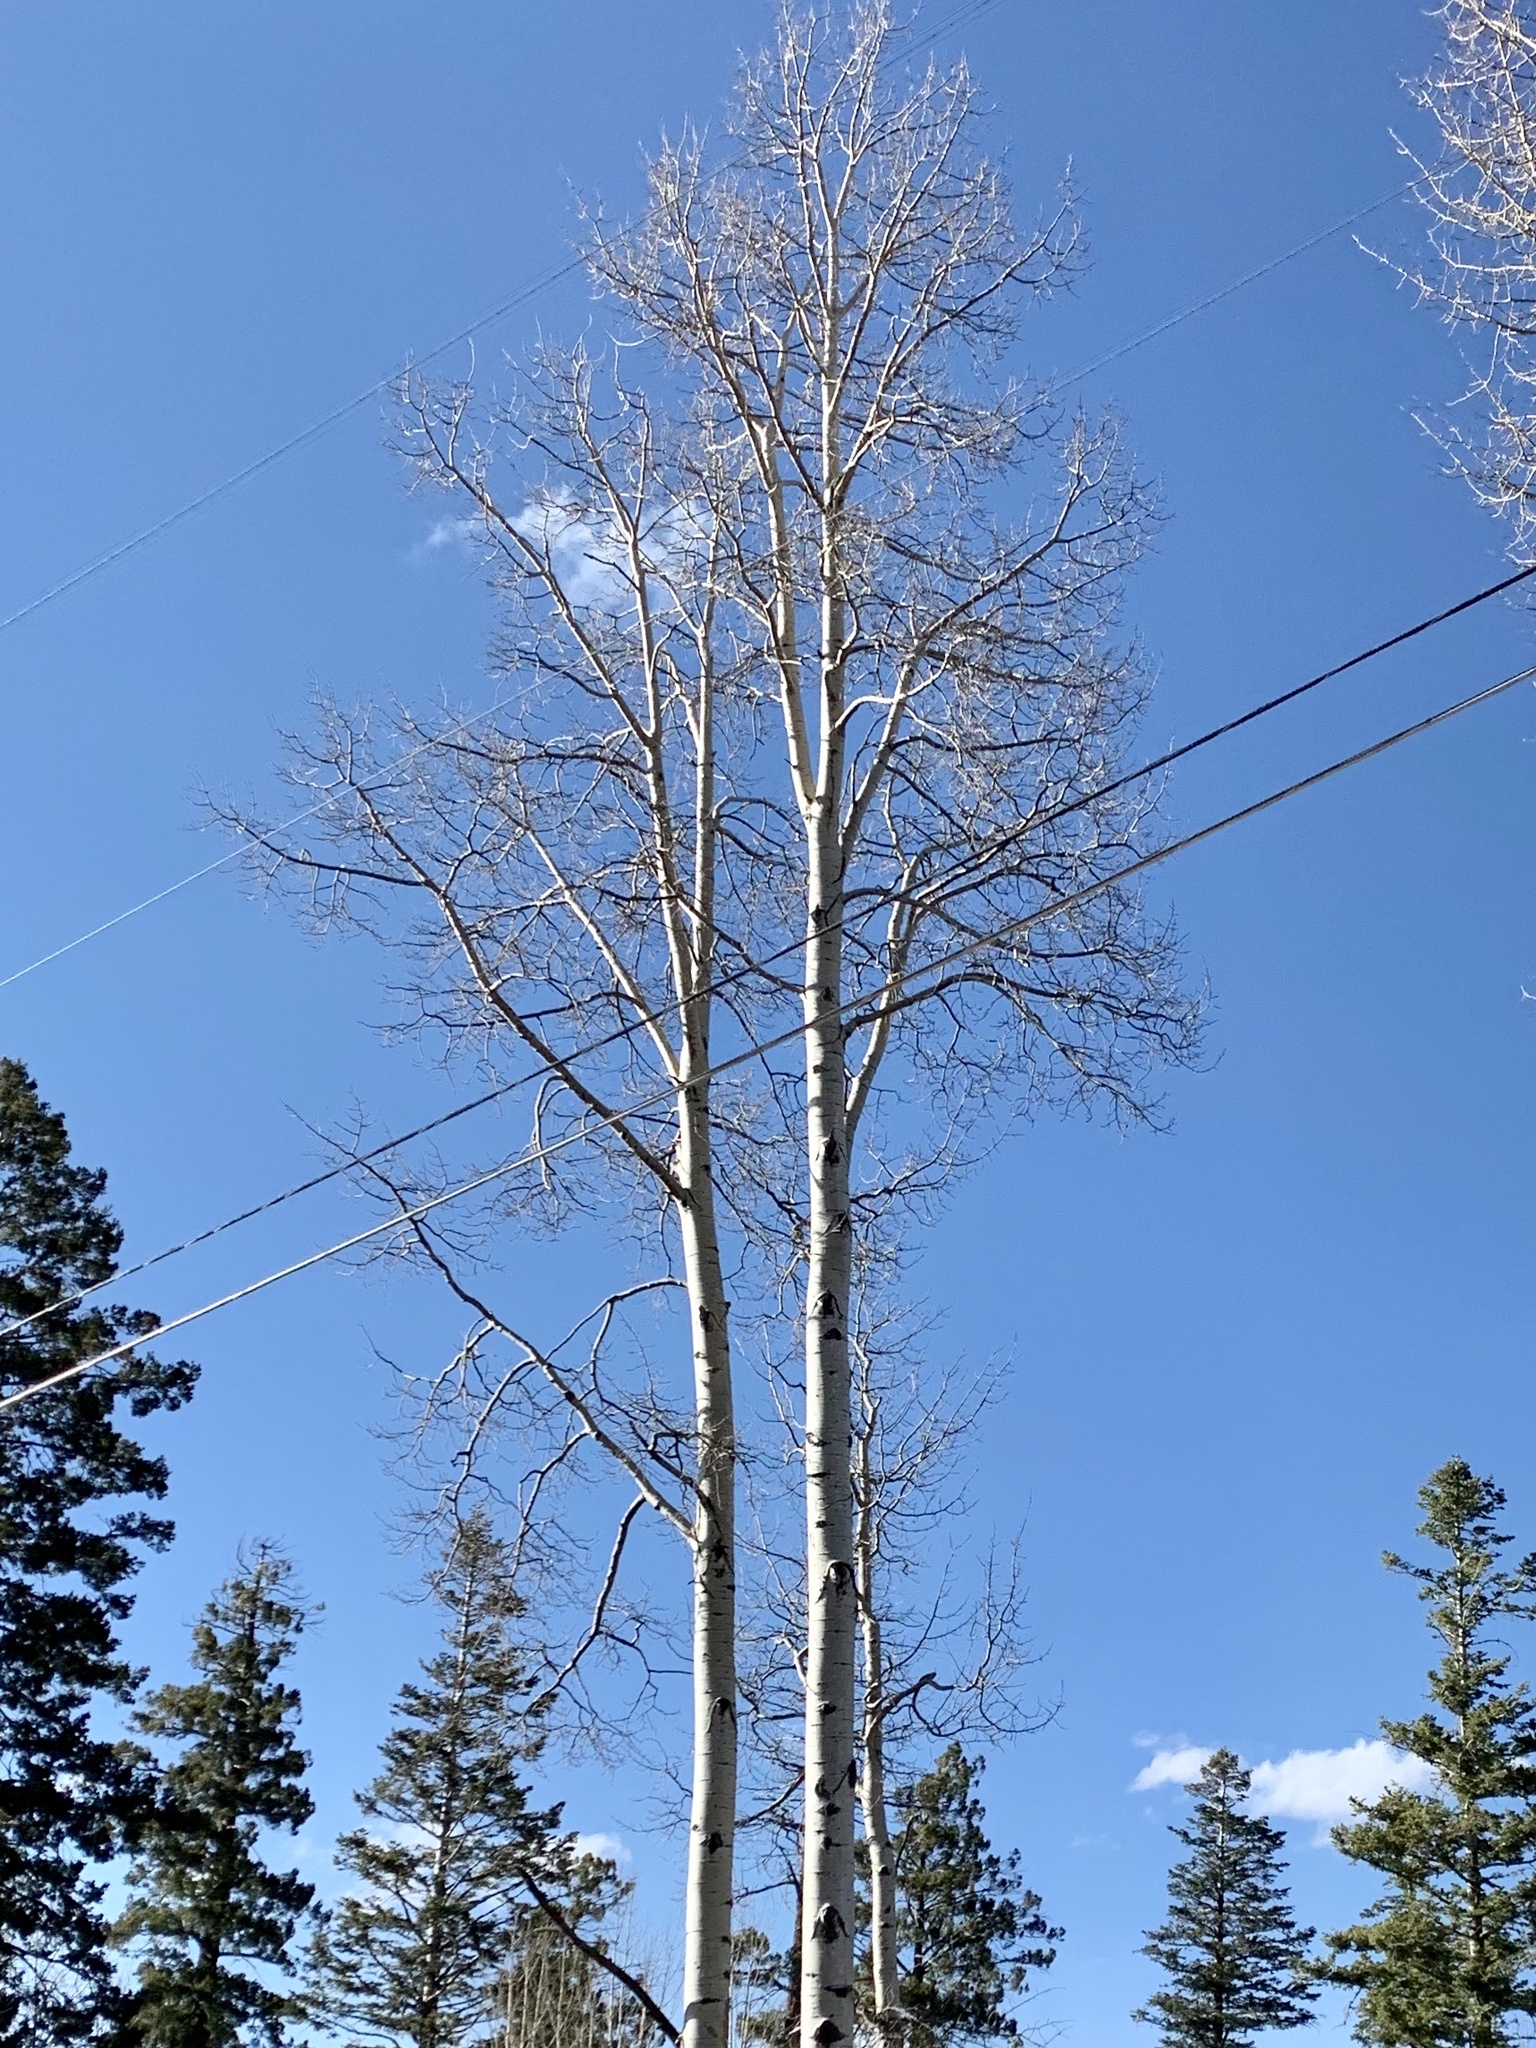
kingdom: Plantae
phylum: Tracheophyta
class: Magnoliopsida
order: Malpighiales
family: Salicaceae
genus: Populus
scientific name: Populus tremuloides
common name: Quaking aspen
